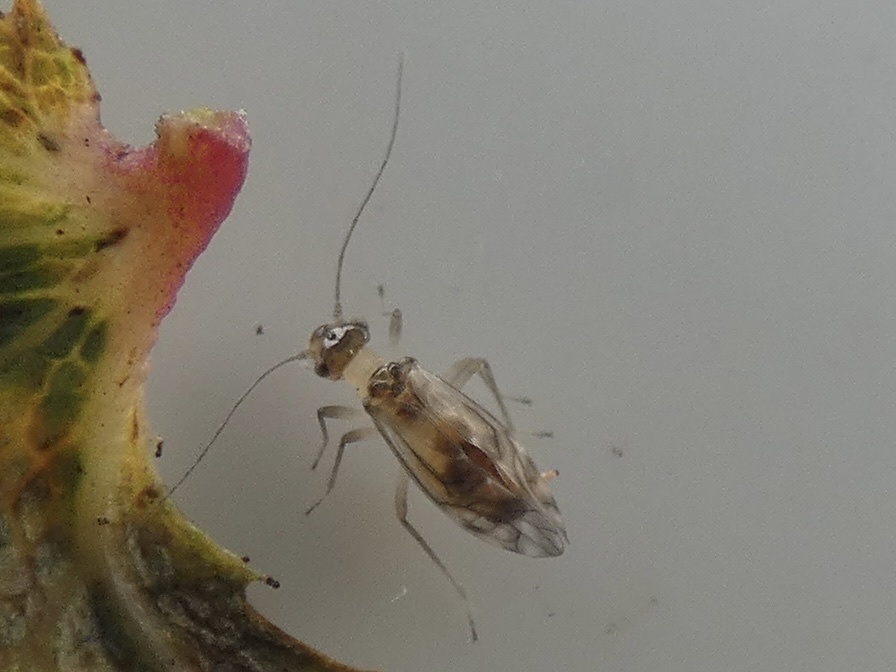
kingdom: Animalia
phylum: Arthropoda
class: Insecta
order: Psocodea
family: Stenopsocidae
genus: Graphopsocus
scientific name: Graphopsocus cruciatus
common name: Lizard bark louse
